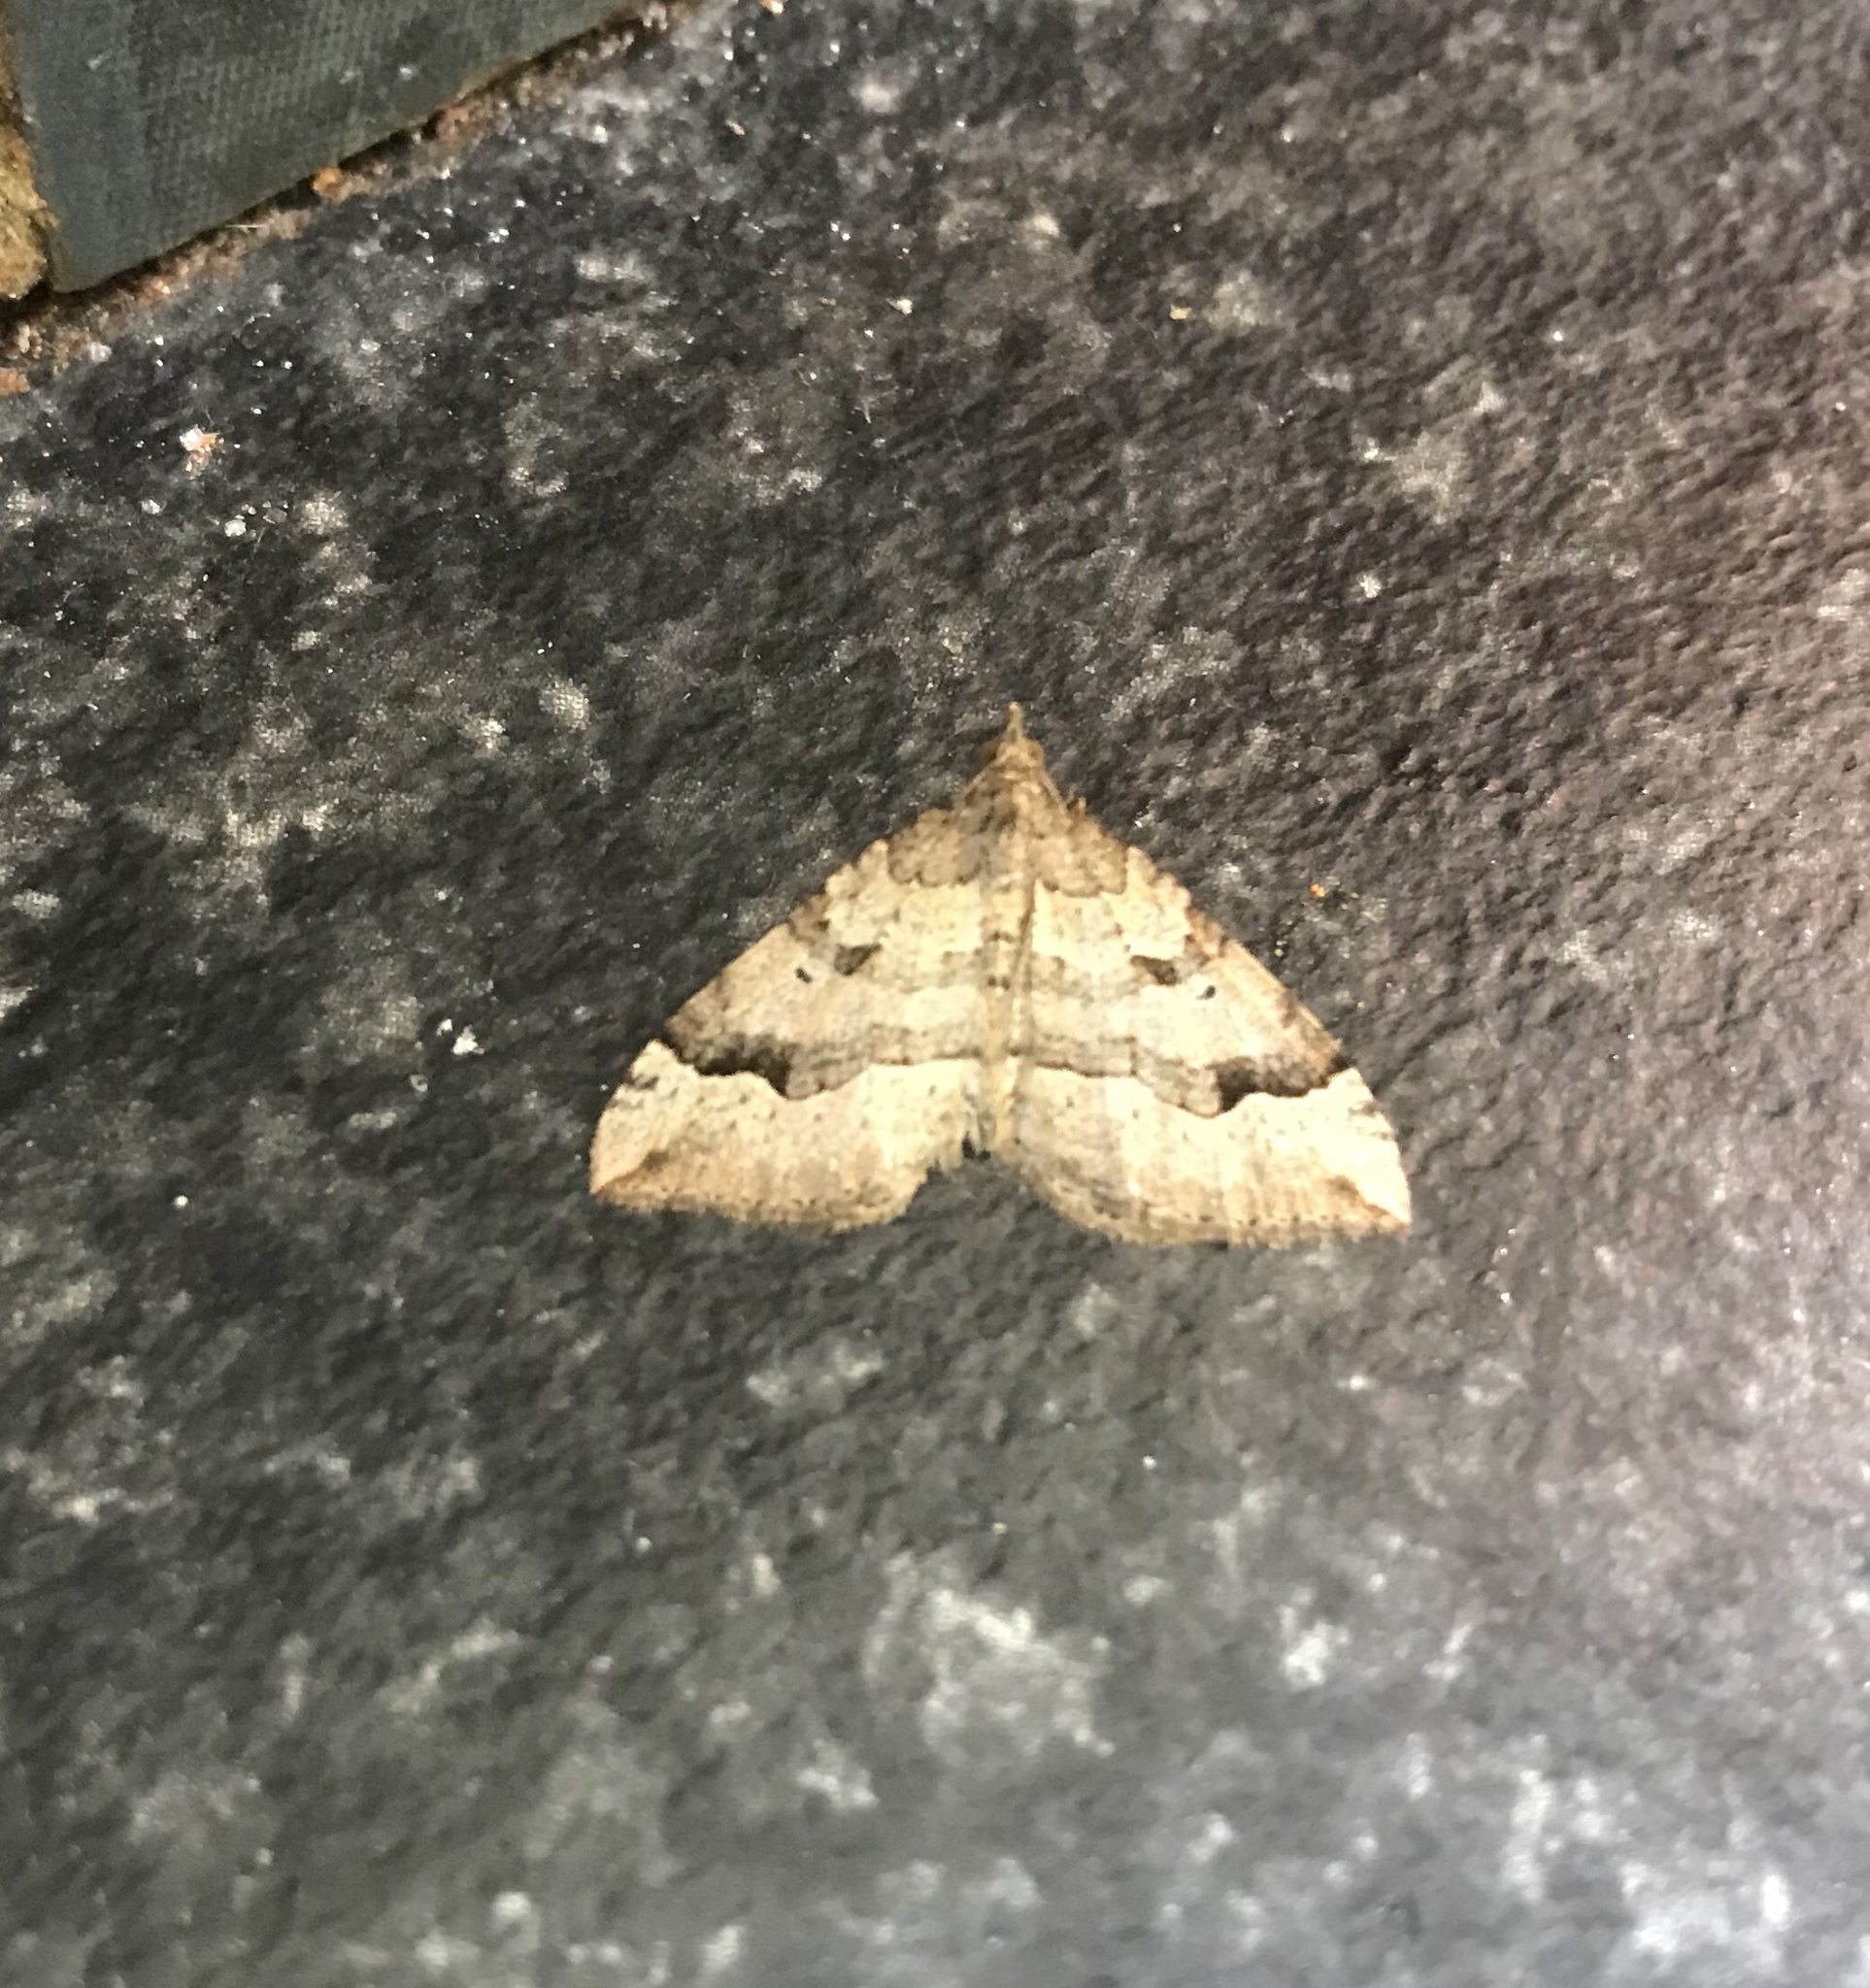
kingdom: Animalia
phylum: Arthropoda
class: Insecta
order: Lepidoptera
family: Geometridae
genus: Epyaxa
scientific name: Epyaxa rosearia
